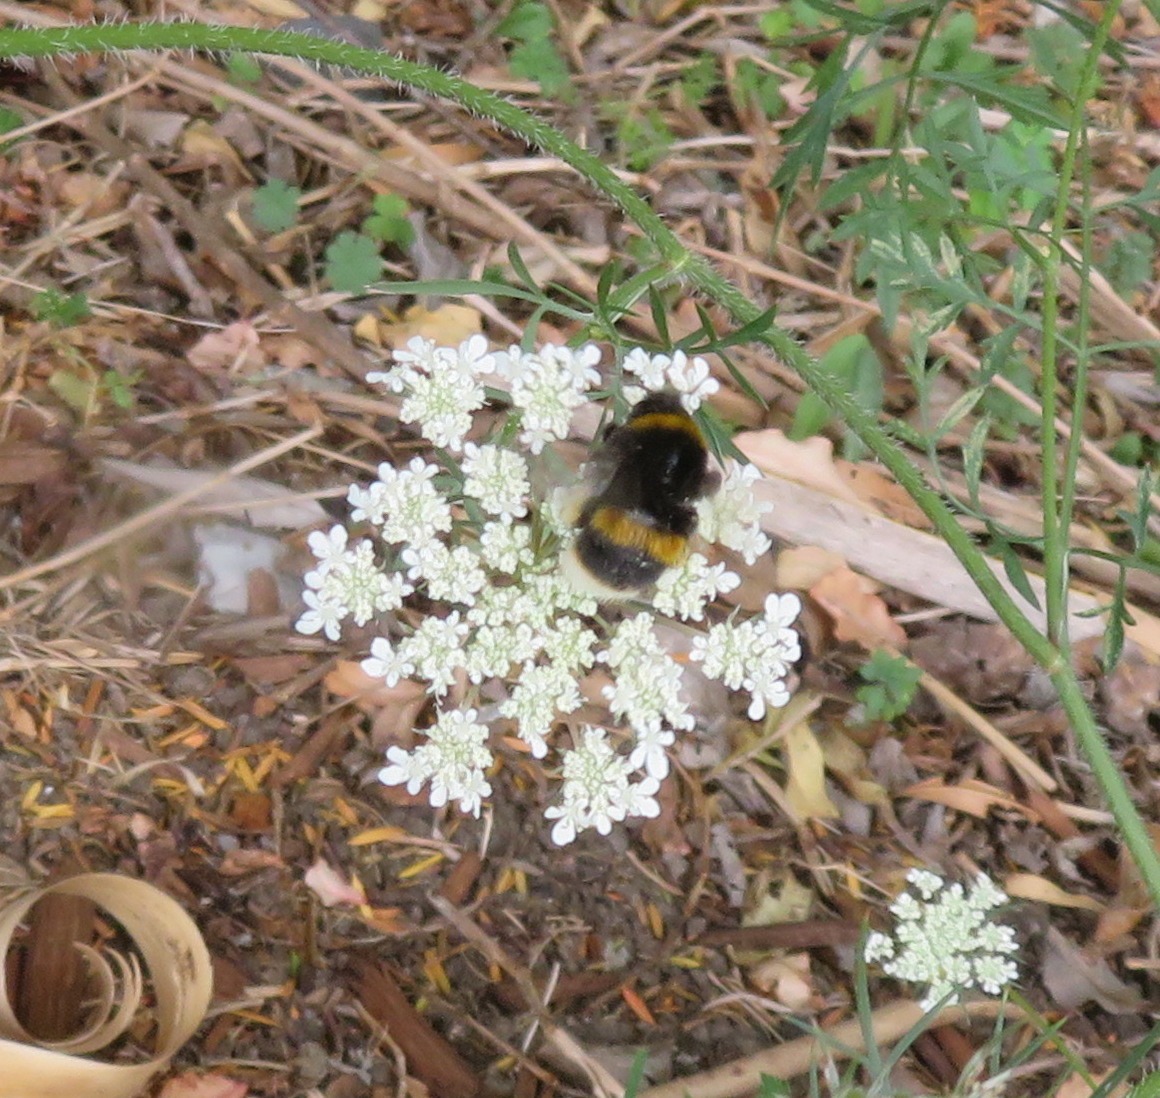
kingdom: Plantae
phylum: Tracheophyta
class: Magnoliopsida
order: Apiales
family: Apiaceae
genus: Daucus
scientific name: Daucus carota
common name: Wild carrot
